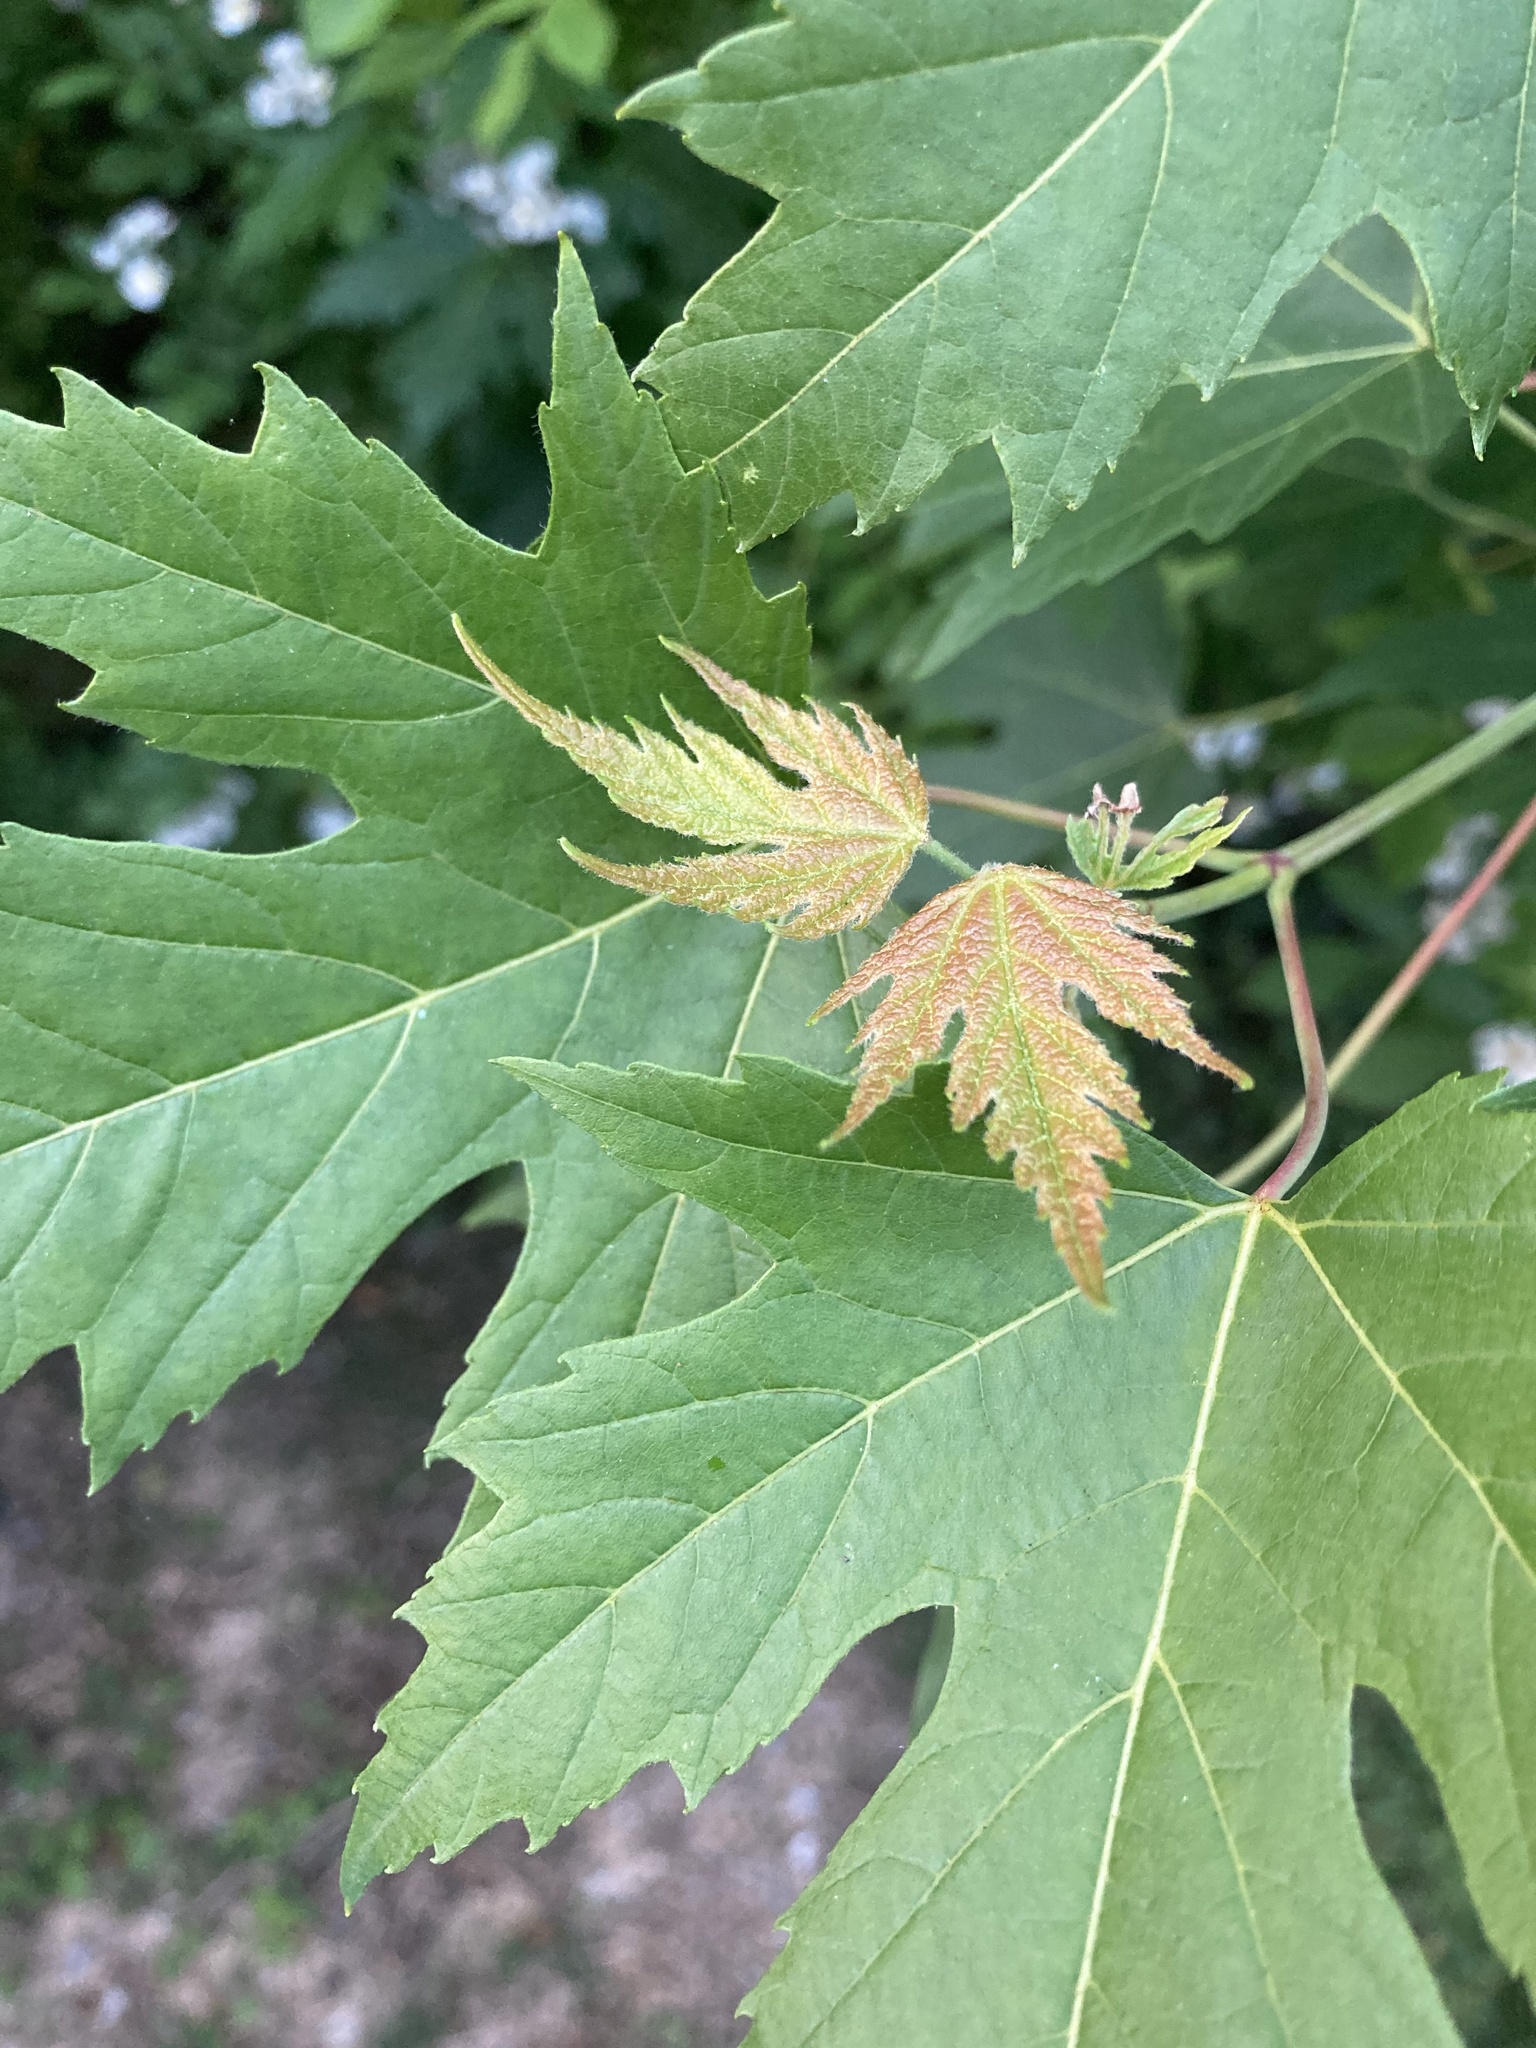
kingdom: Plantae
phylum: Tracheophyta
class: Magnoliopsida
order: Sapindales
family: Sapindaceae
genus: Acer
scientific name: Acer saccharinum
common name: Silver maple
